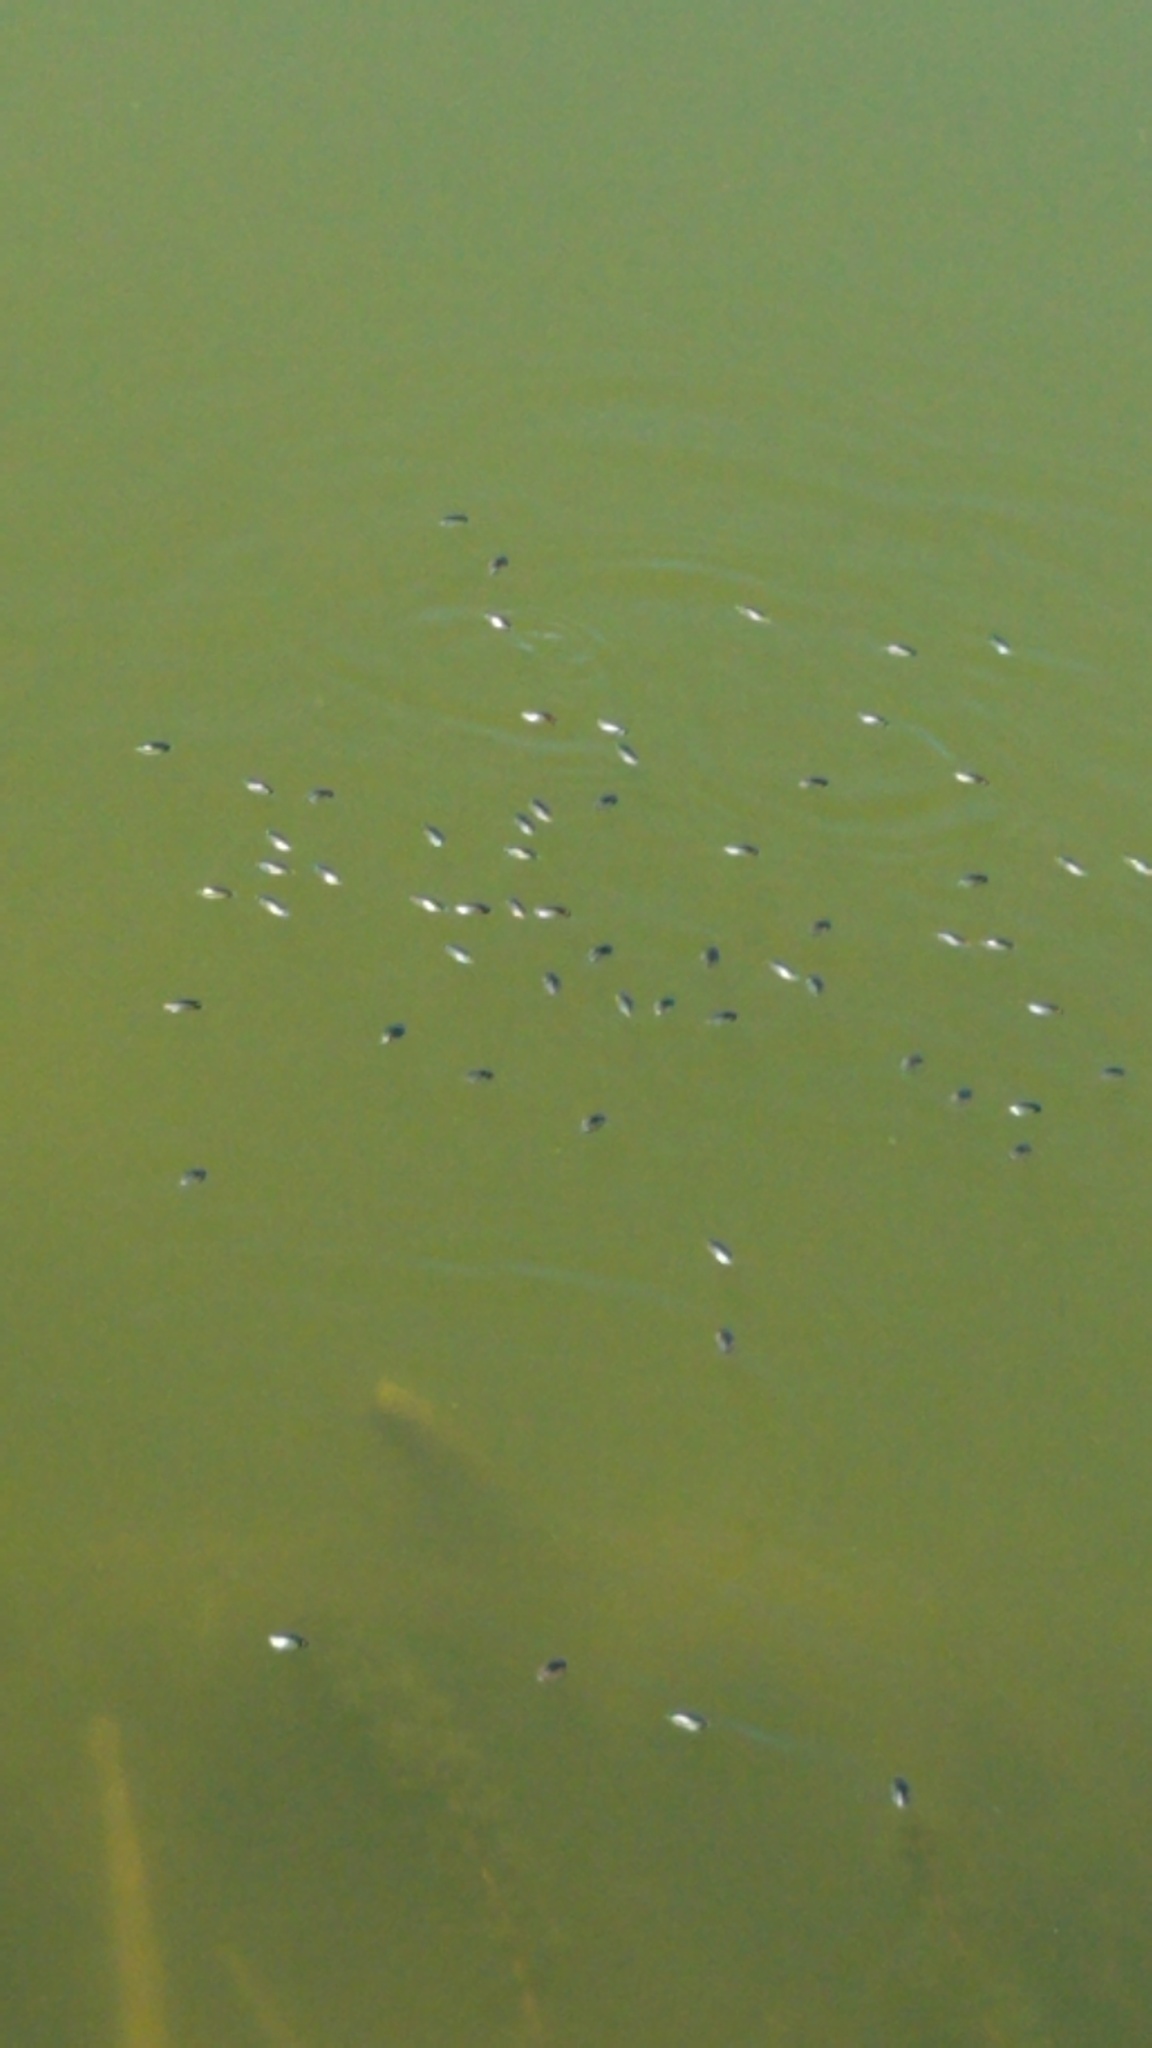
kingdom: Animalia
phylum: Arthropoda
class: Insecta
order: Coleoptera
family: Gyrinidae
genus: Dineutus
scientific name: Dineutus
